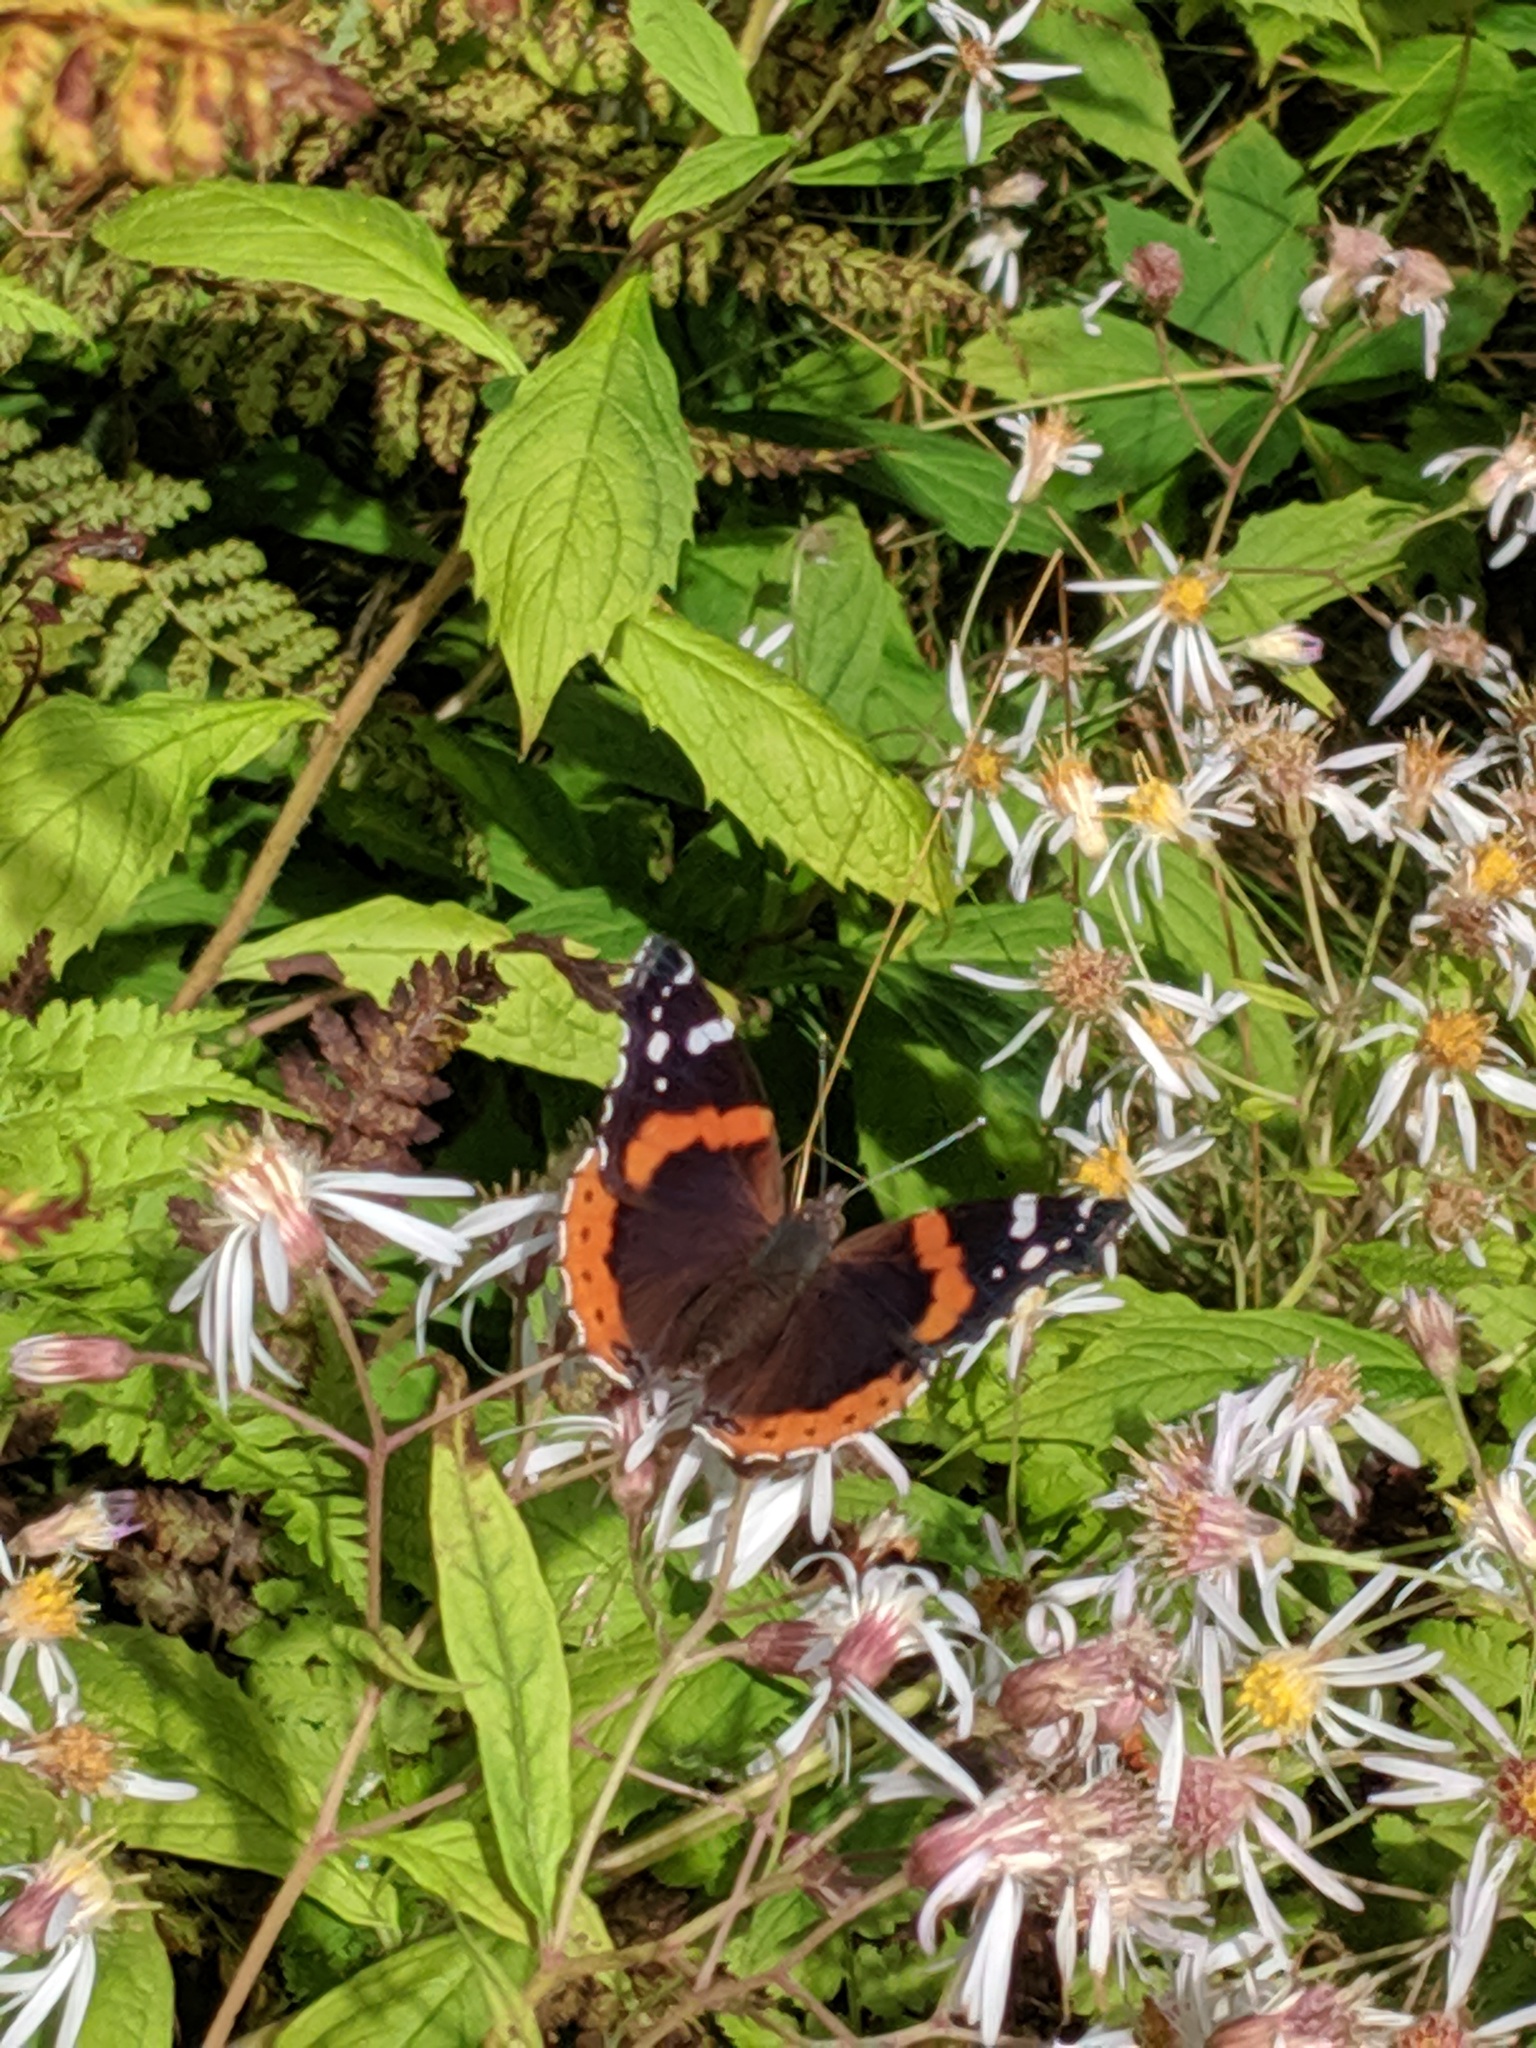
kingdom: Animalia
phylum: Arthropoda
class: Insecta
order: Lepidoptera
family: Nymphalidae
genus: Vanessa
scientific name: Vanessa atalanta
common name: Red admiral
